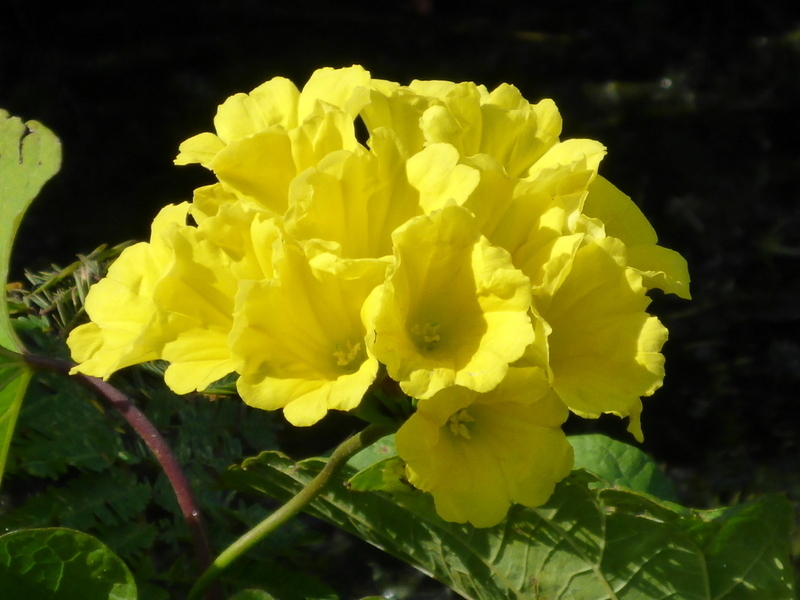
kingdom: Plantae
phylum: Tracheophyta
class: Magnoliopsida
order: Solanales
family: Convolvulaceae
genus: Camonea
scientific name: Camonea umbellata
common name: Hogvine
